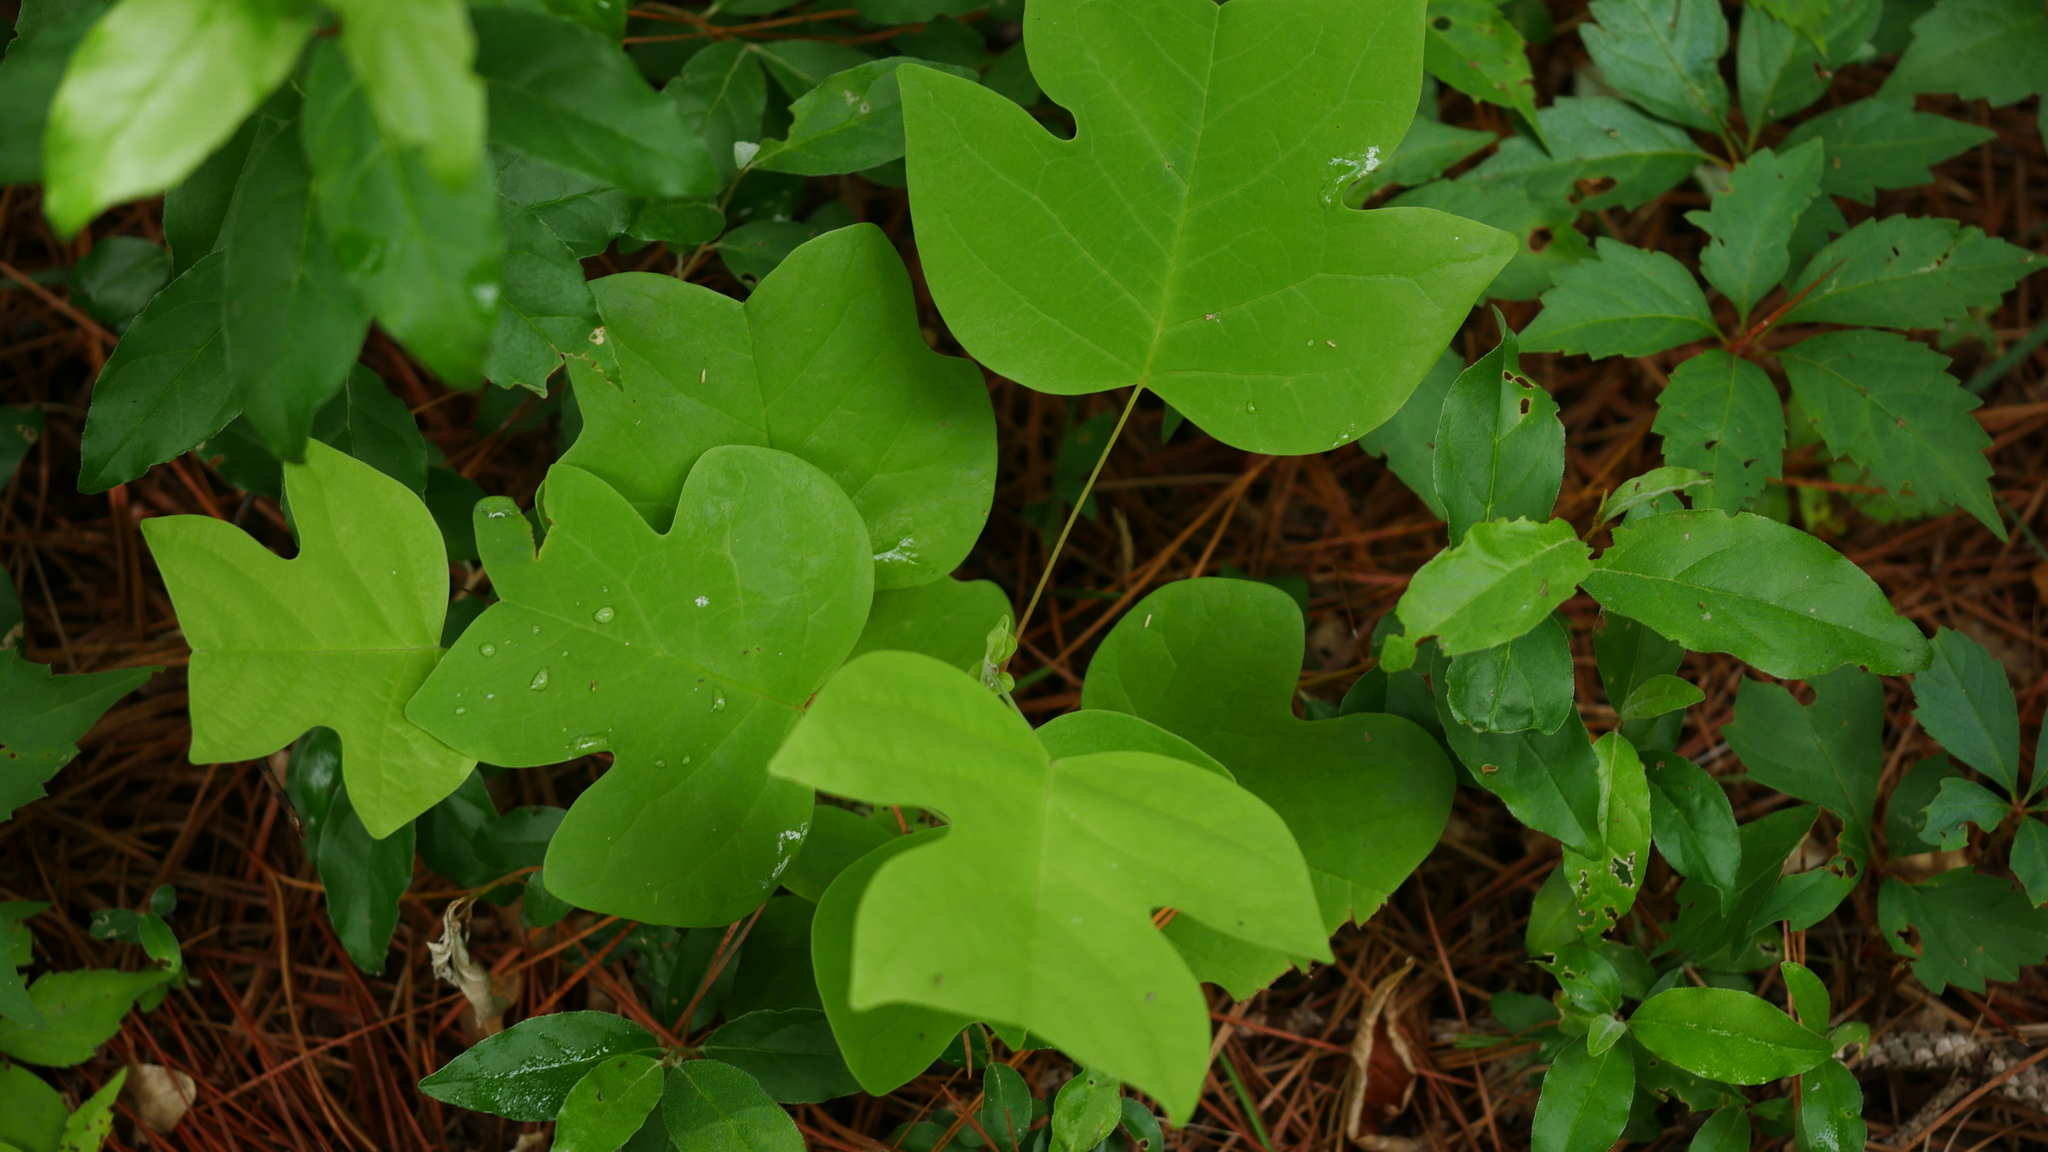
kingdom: Plantae
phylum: Tracheophyta
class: Magnoliopsida
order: Magnoliales
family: Magnoliaceae
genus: Liriodendron
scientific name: Liriodendron tulipifera
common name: Tulip tree
